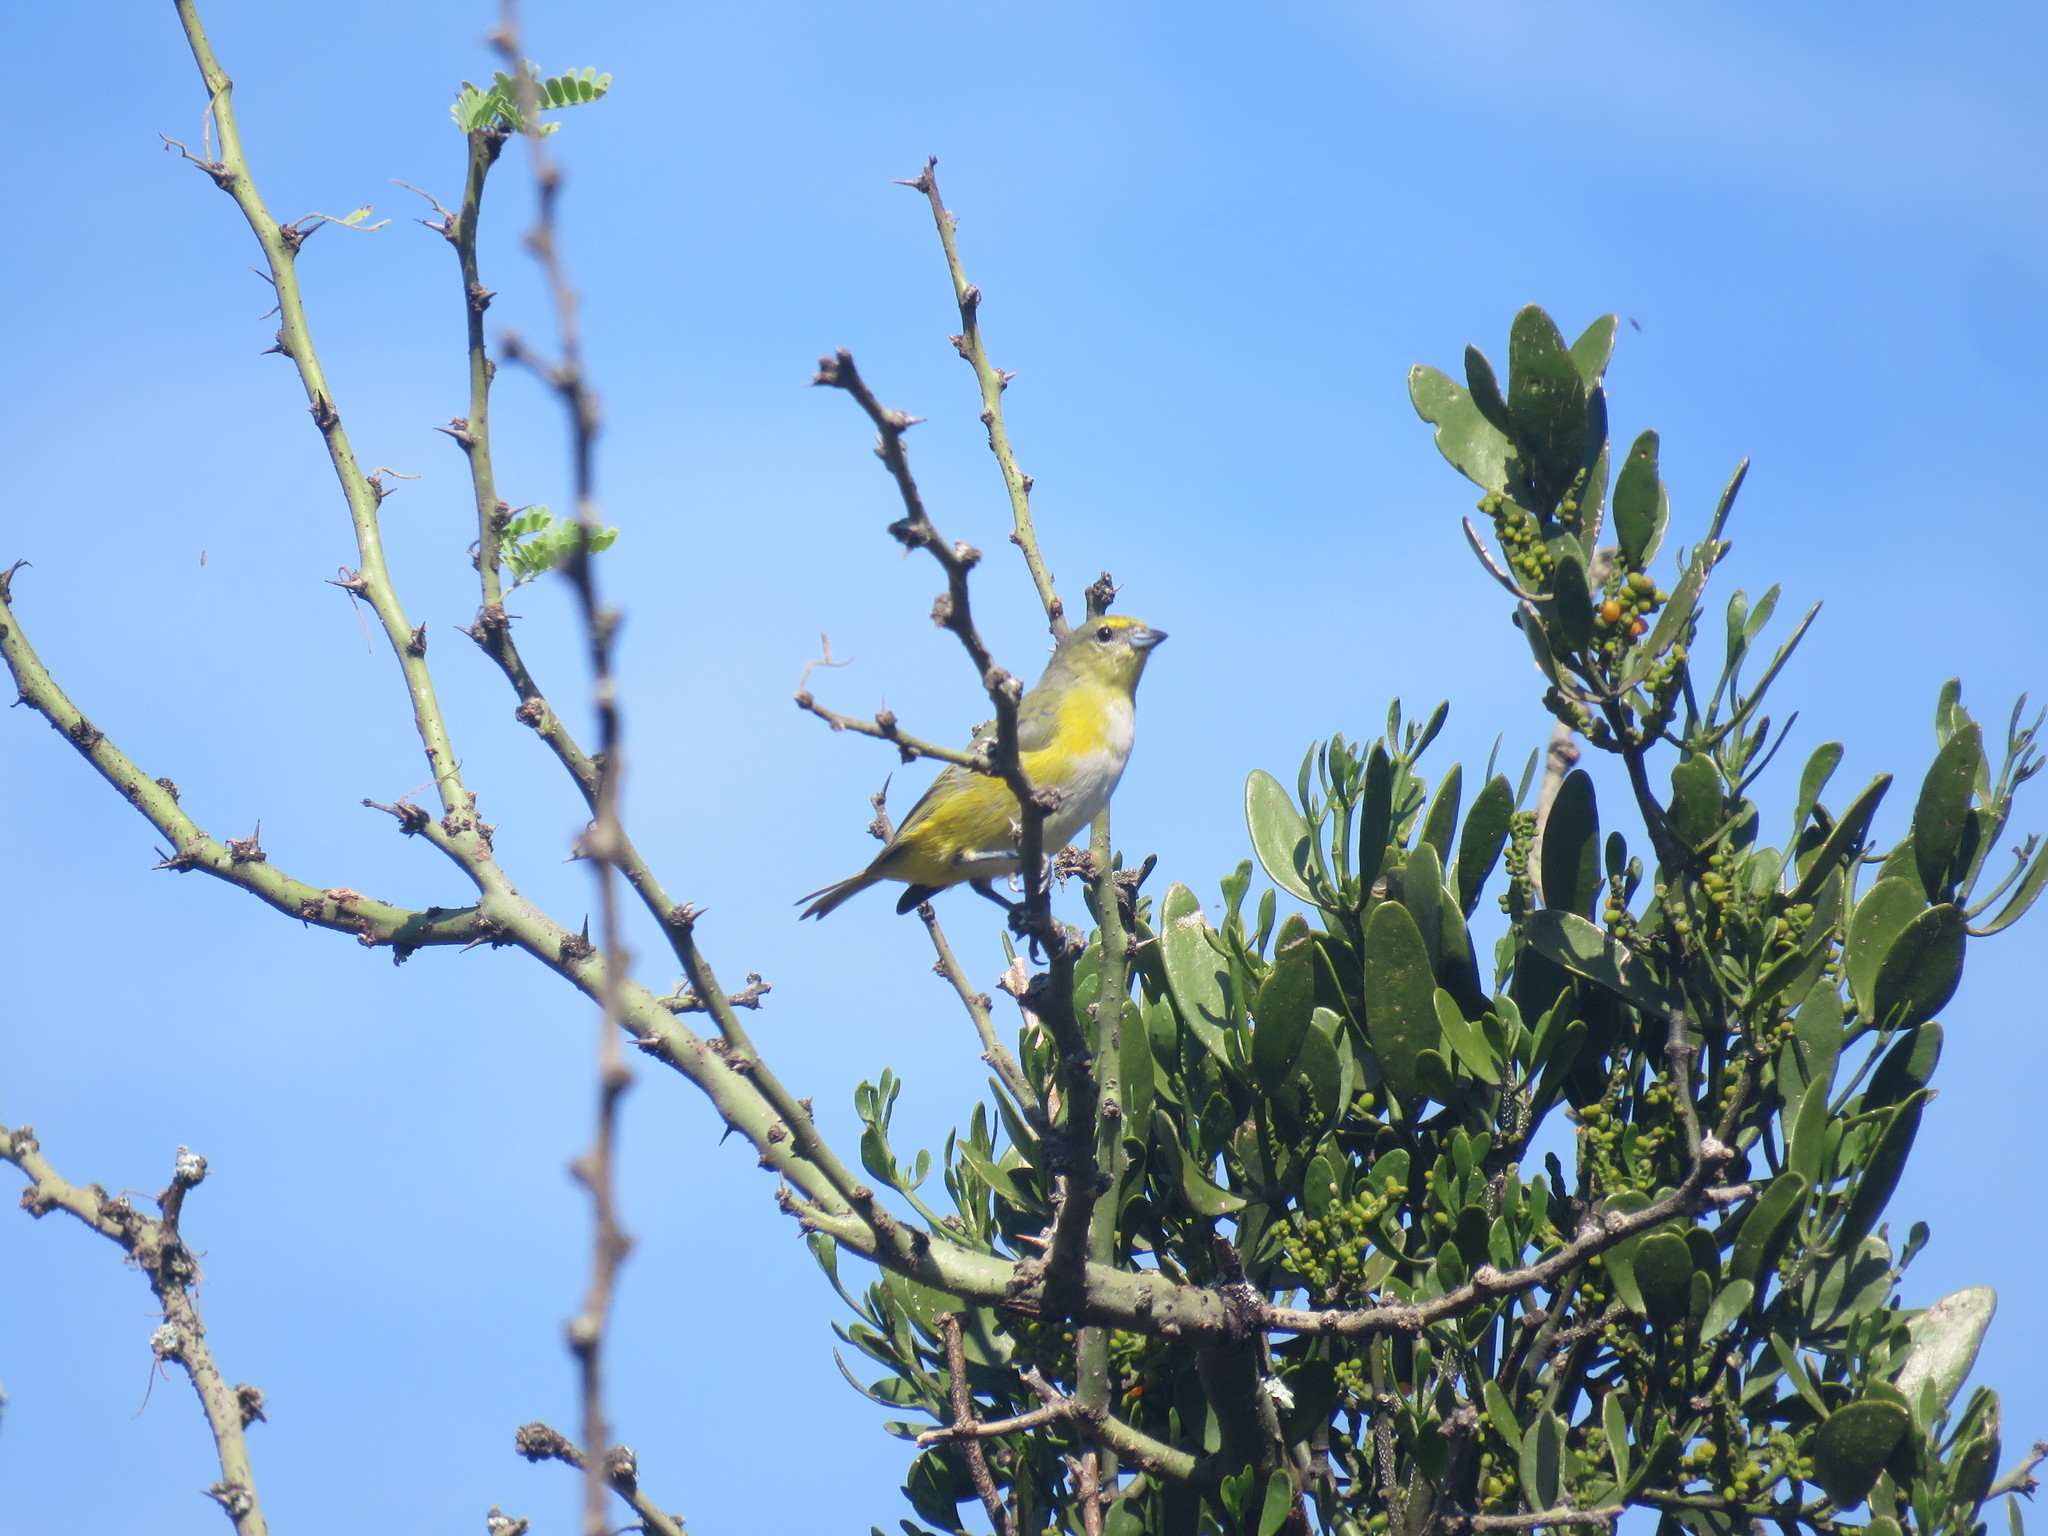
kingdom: Animalia
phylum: Chordata
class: Aves
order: Passeriformes
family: Fringillidae
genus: Euphonia
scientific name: Euphonia chlorotica
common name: Purple-throated euphonia
